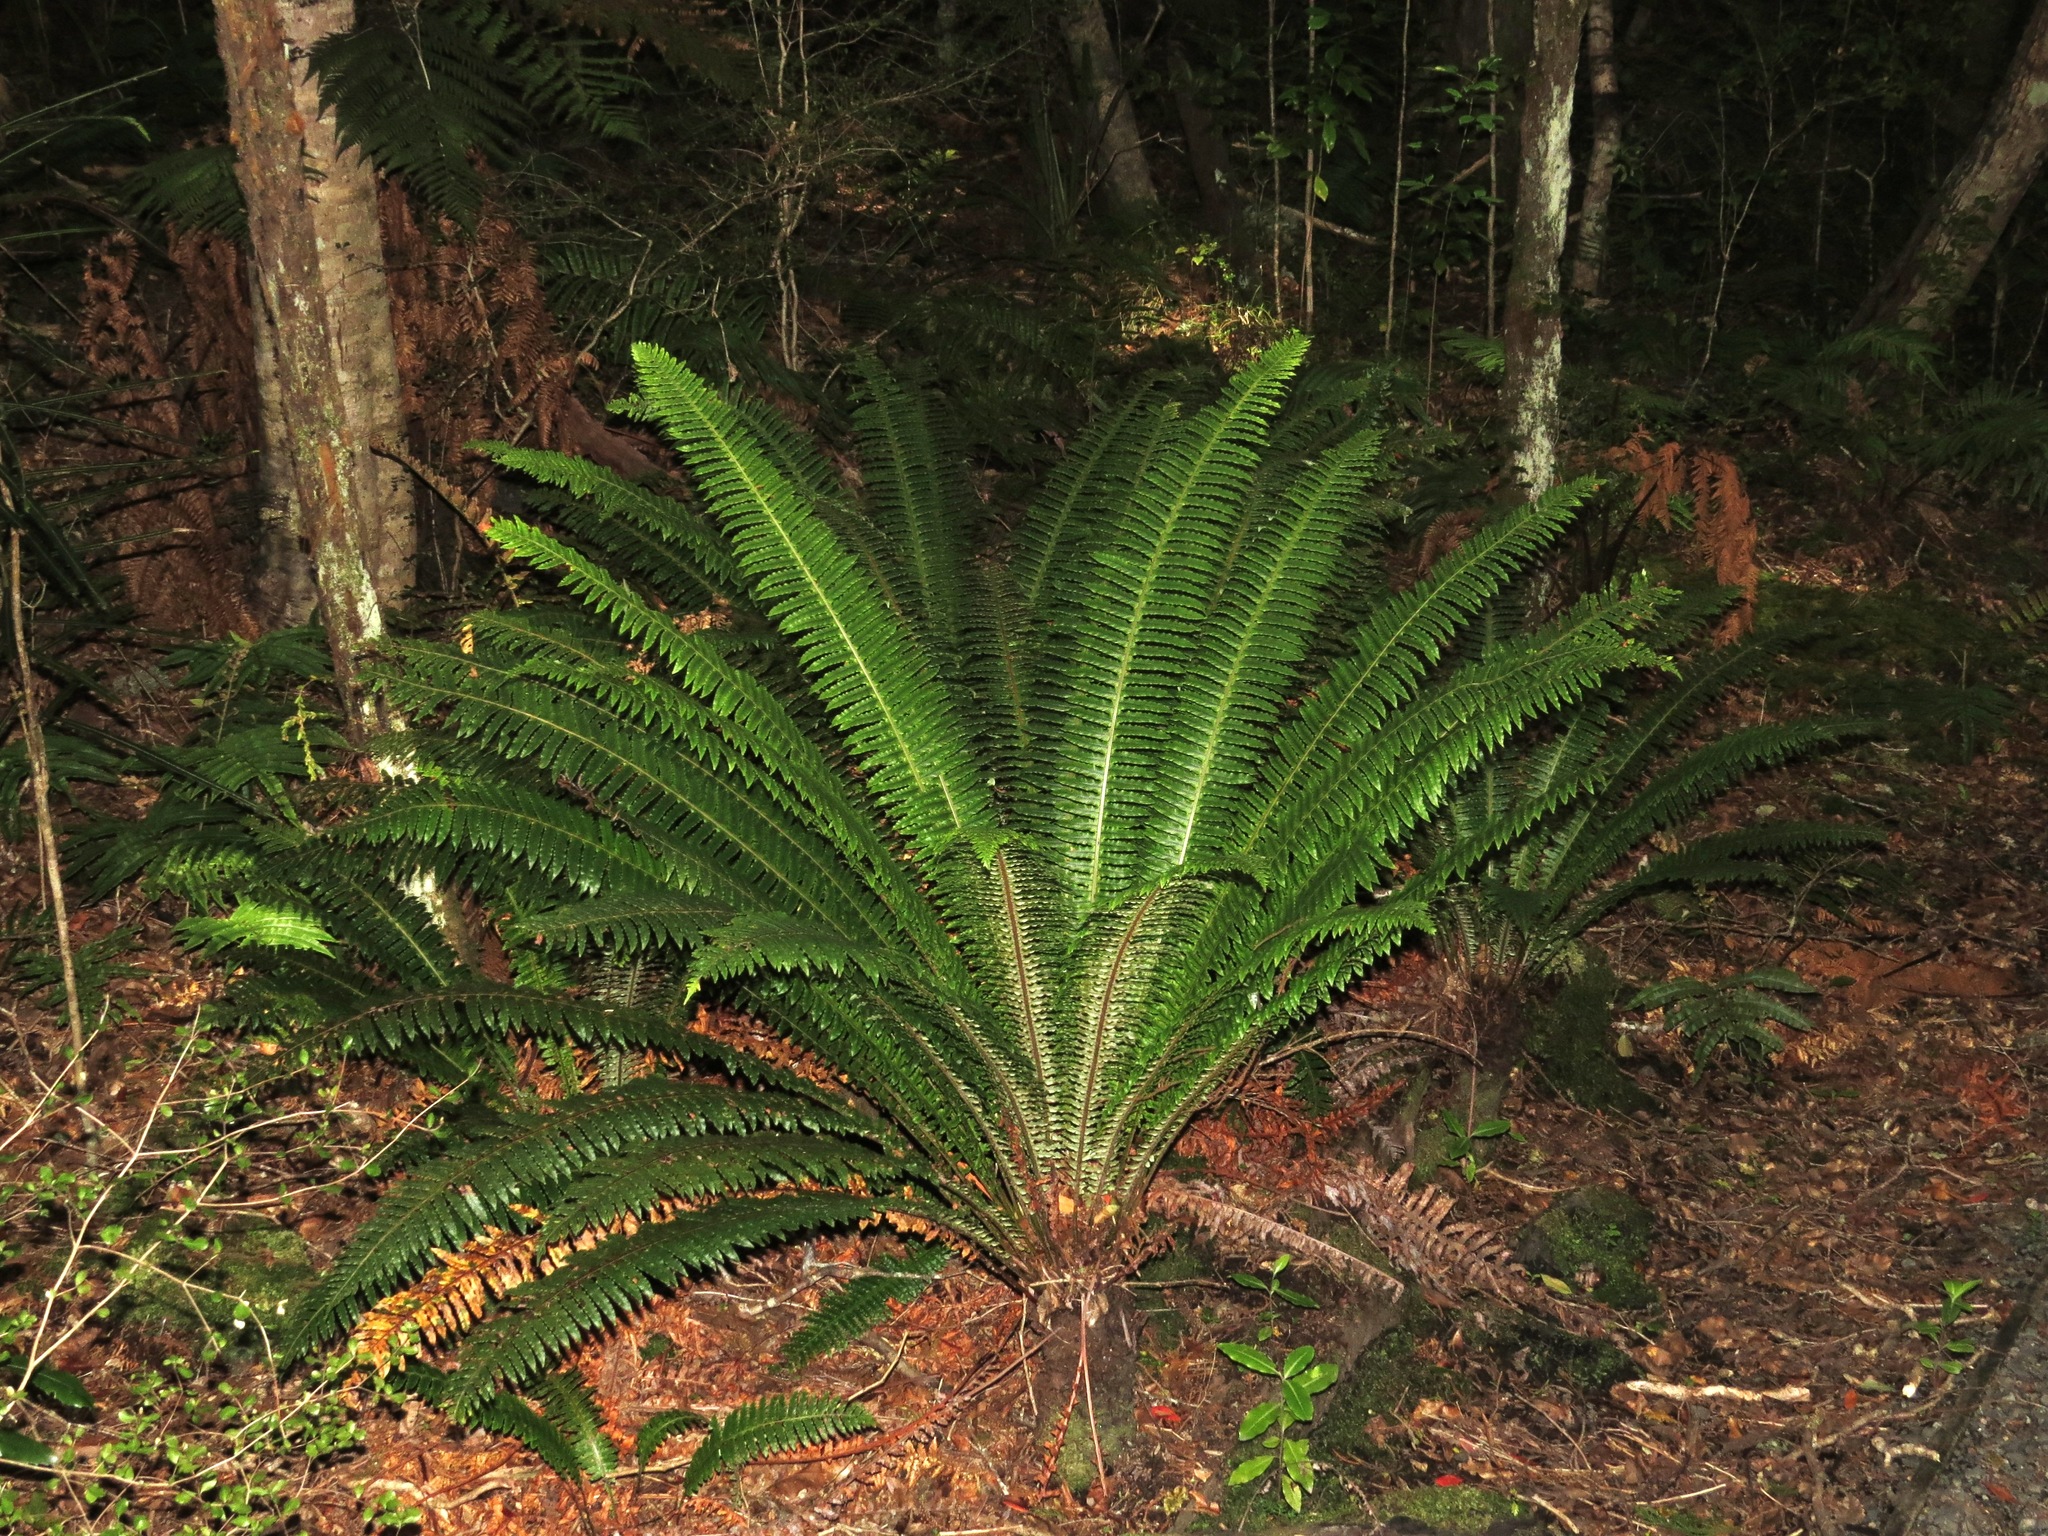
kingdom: Plantae
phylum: Tracheophyta
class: Polypodiopsida
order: Polypodiales
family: Blechnaceae
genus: Lomaria
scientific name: Lomaria discolor
